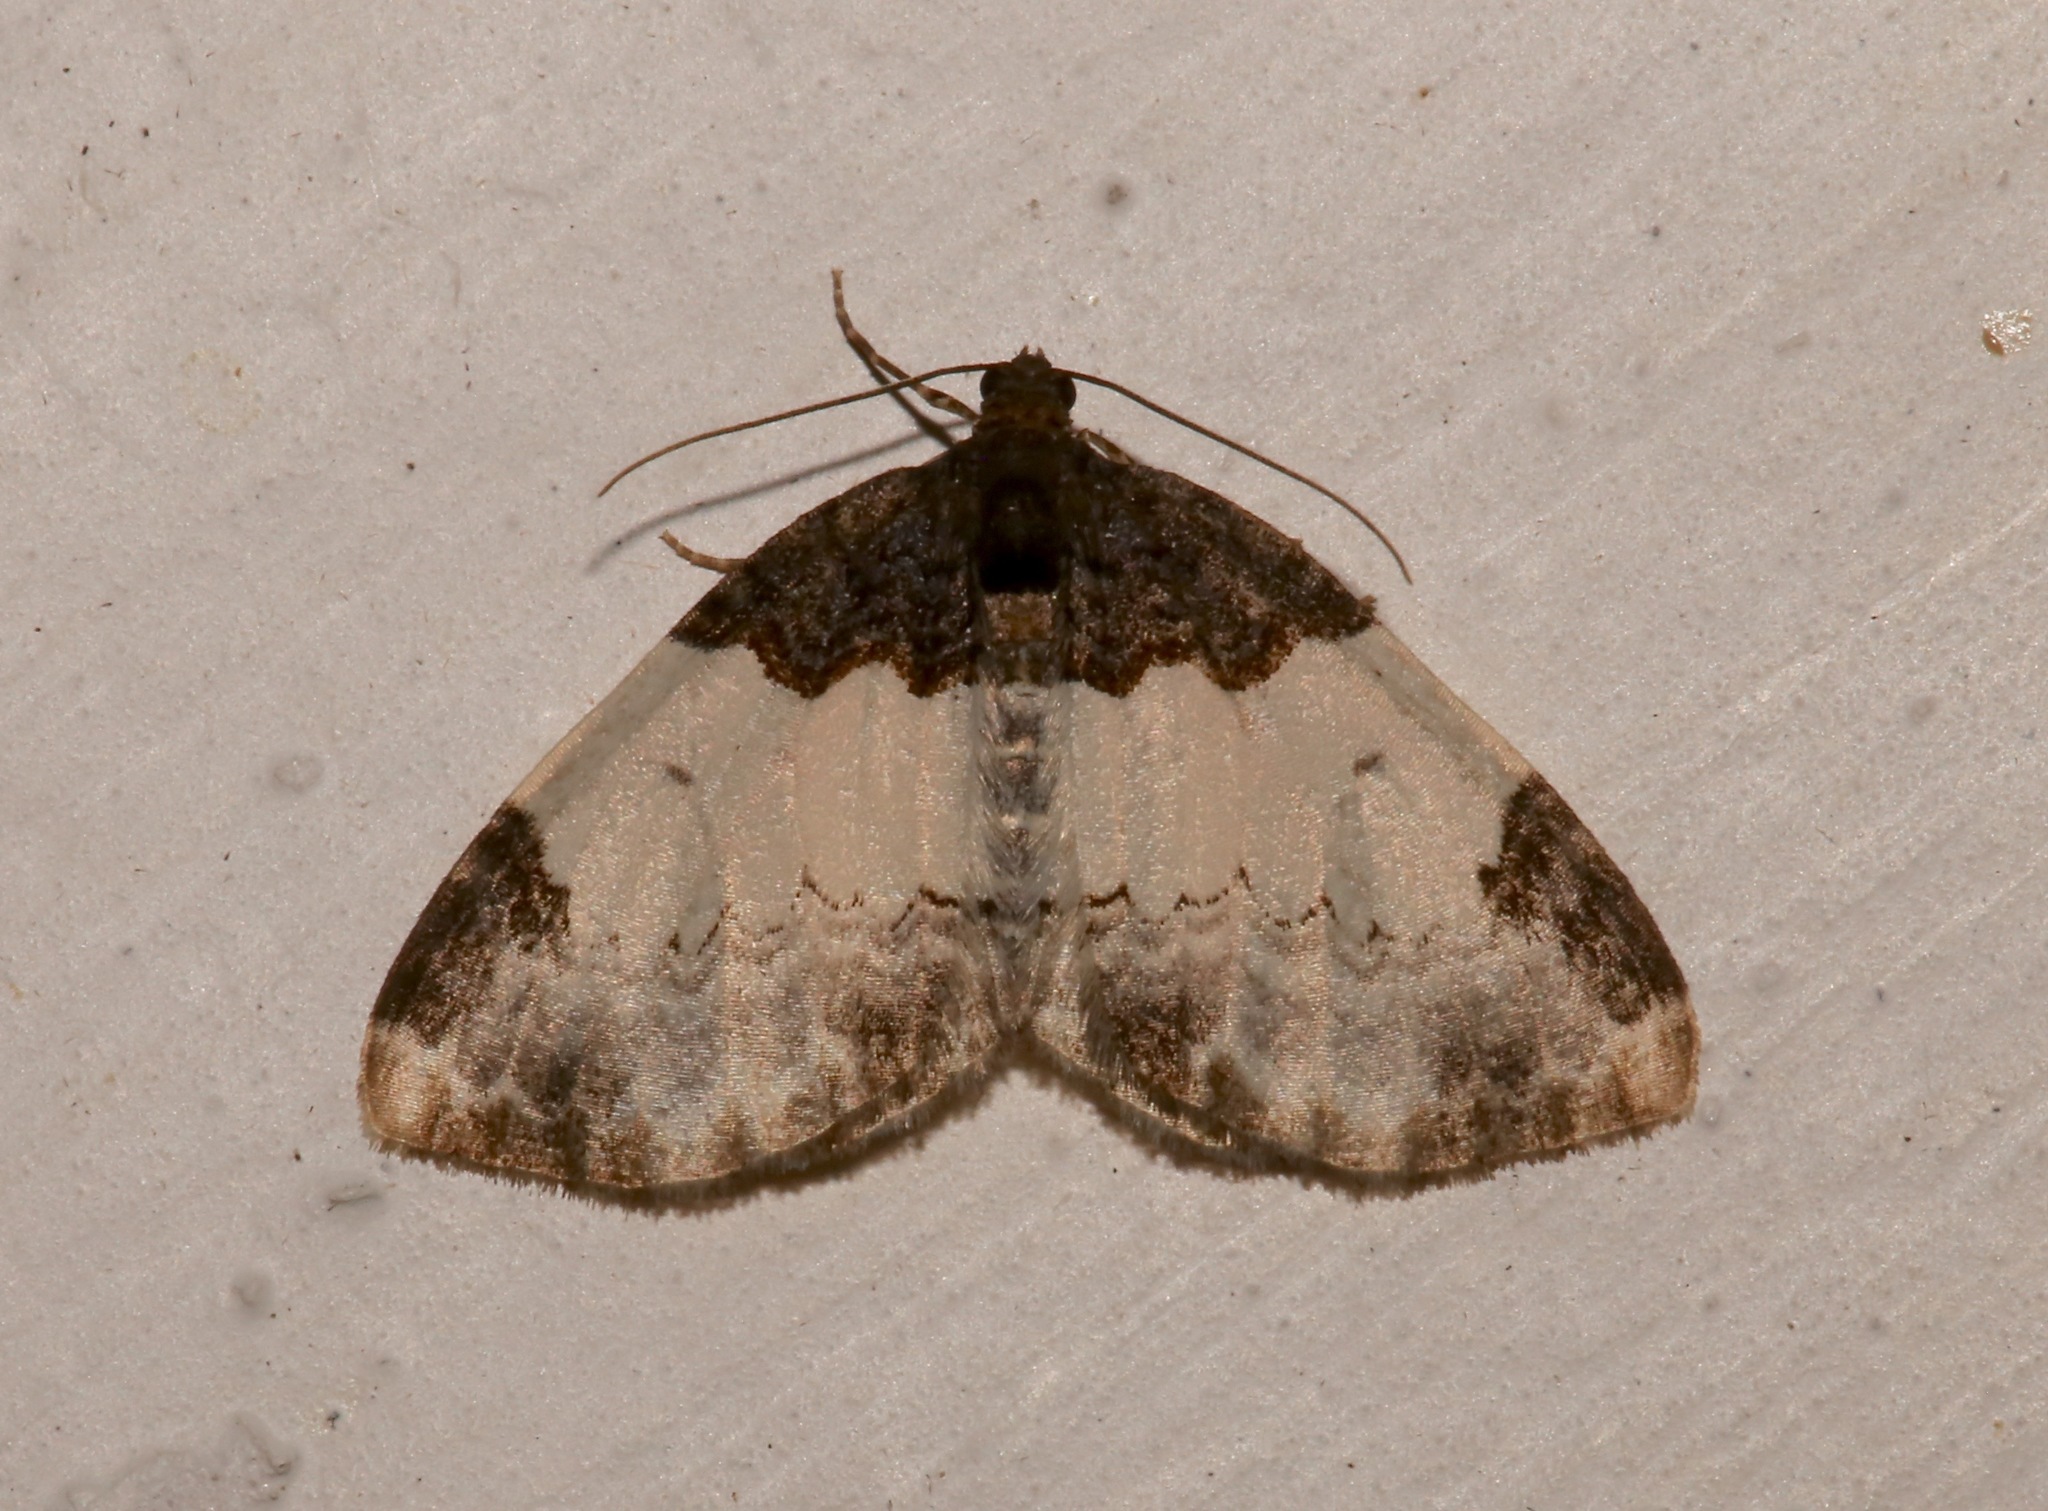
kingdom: Animalia
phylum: Arthropoda
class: Insecta
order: Lepidoptera
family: Geometridae
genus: Mesoleuca
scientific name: Mesoleuca ruficillata
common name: White-ribboned carpet moth
